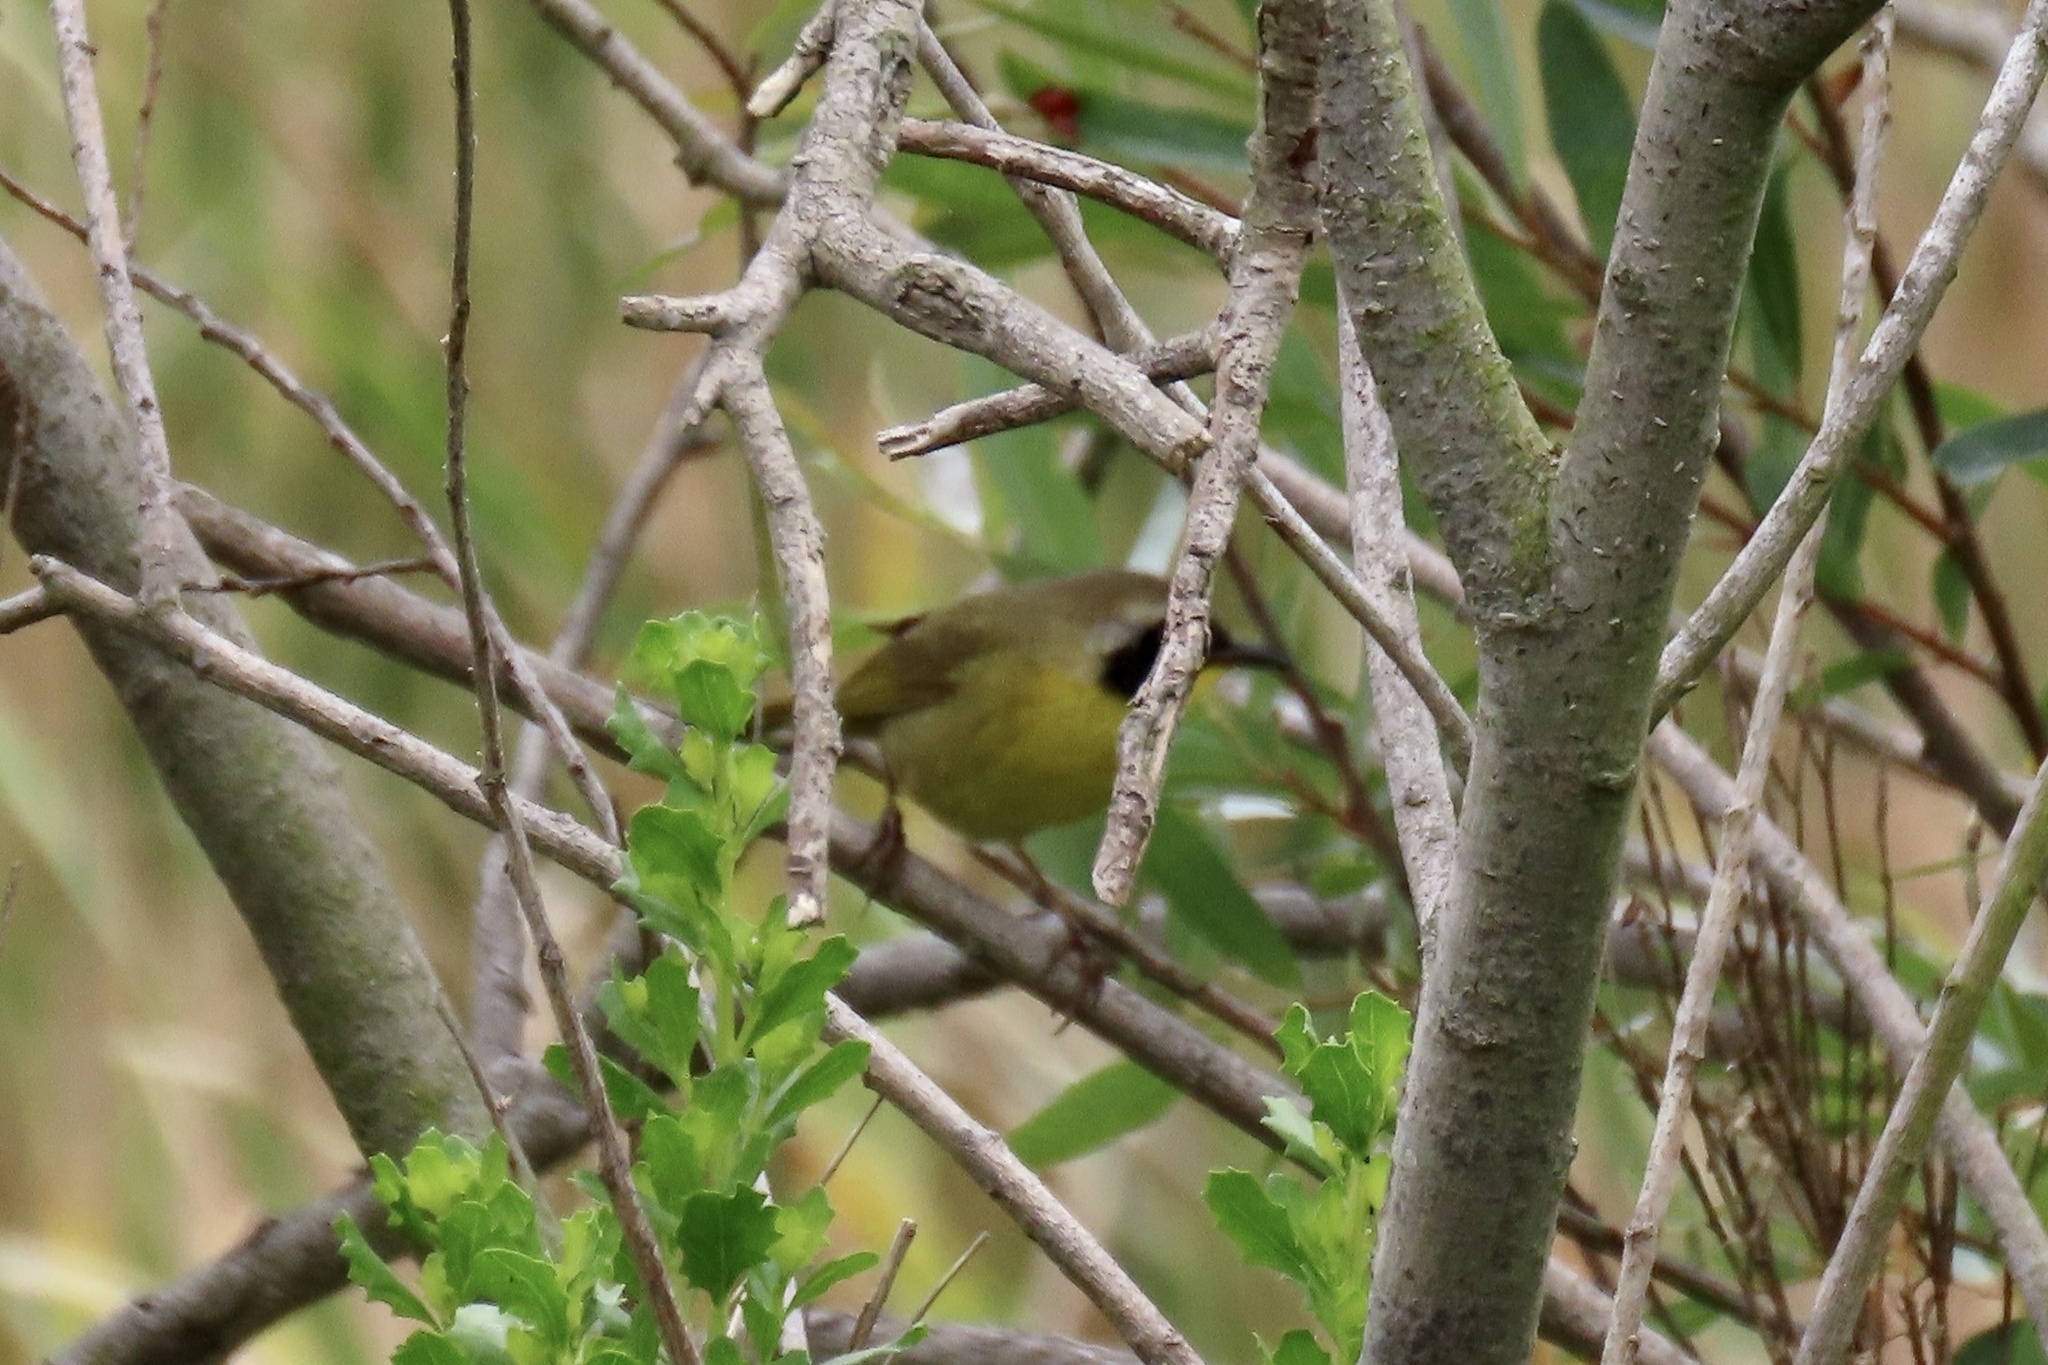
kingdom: Animalia
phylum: Chordata
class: Aves
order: Passeriformes
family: Parulidae
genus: Geothlypis
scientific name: Geothlypis trichas
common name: Common yellowthroat
